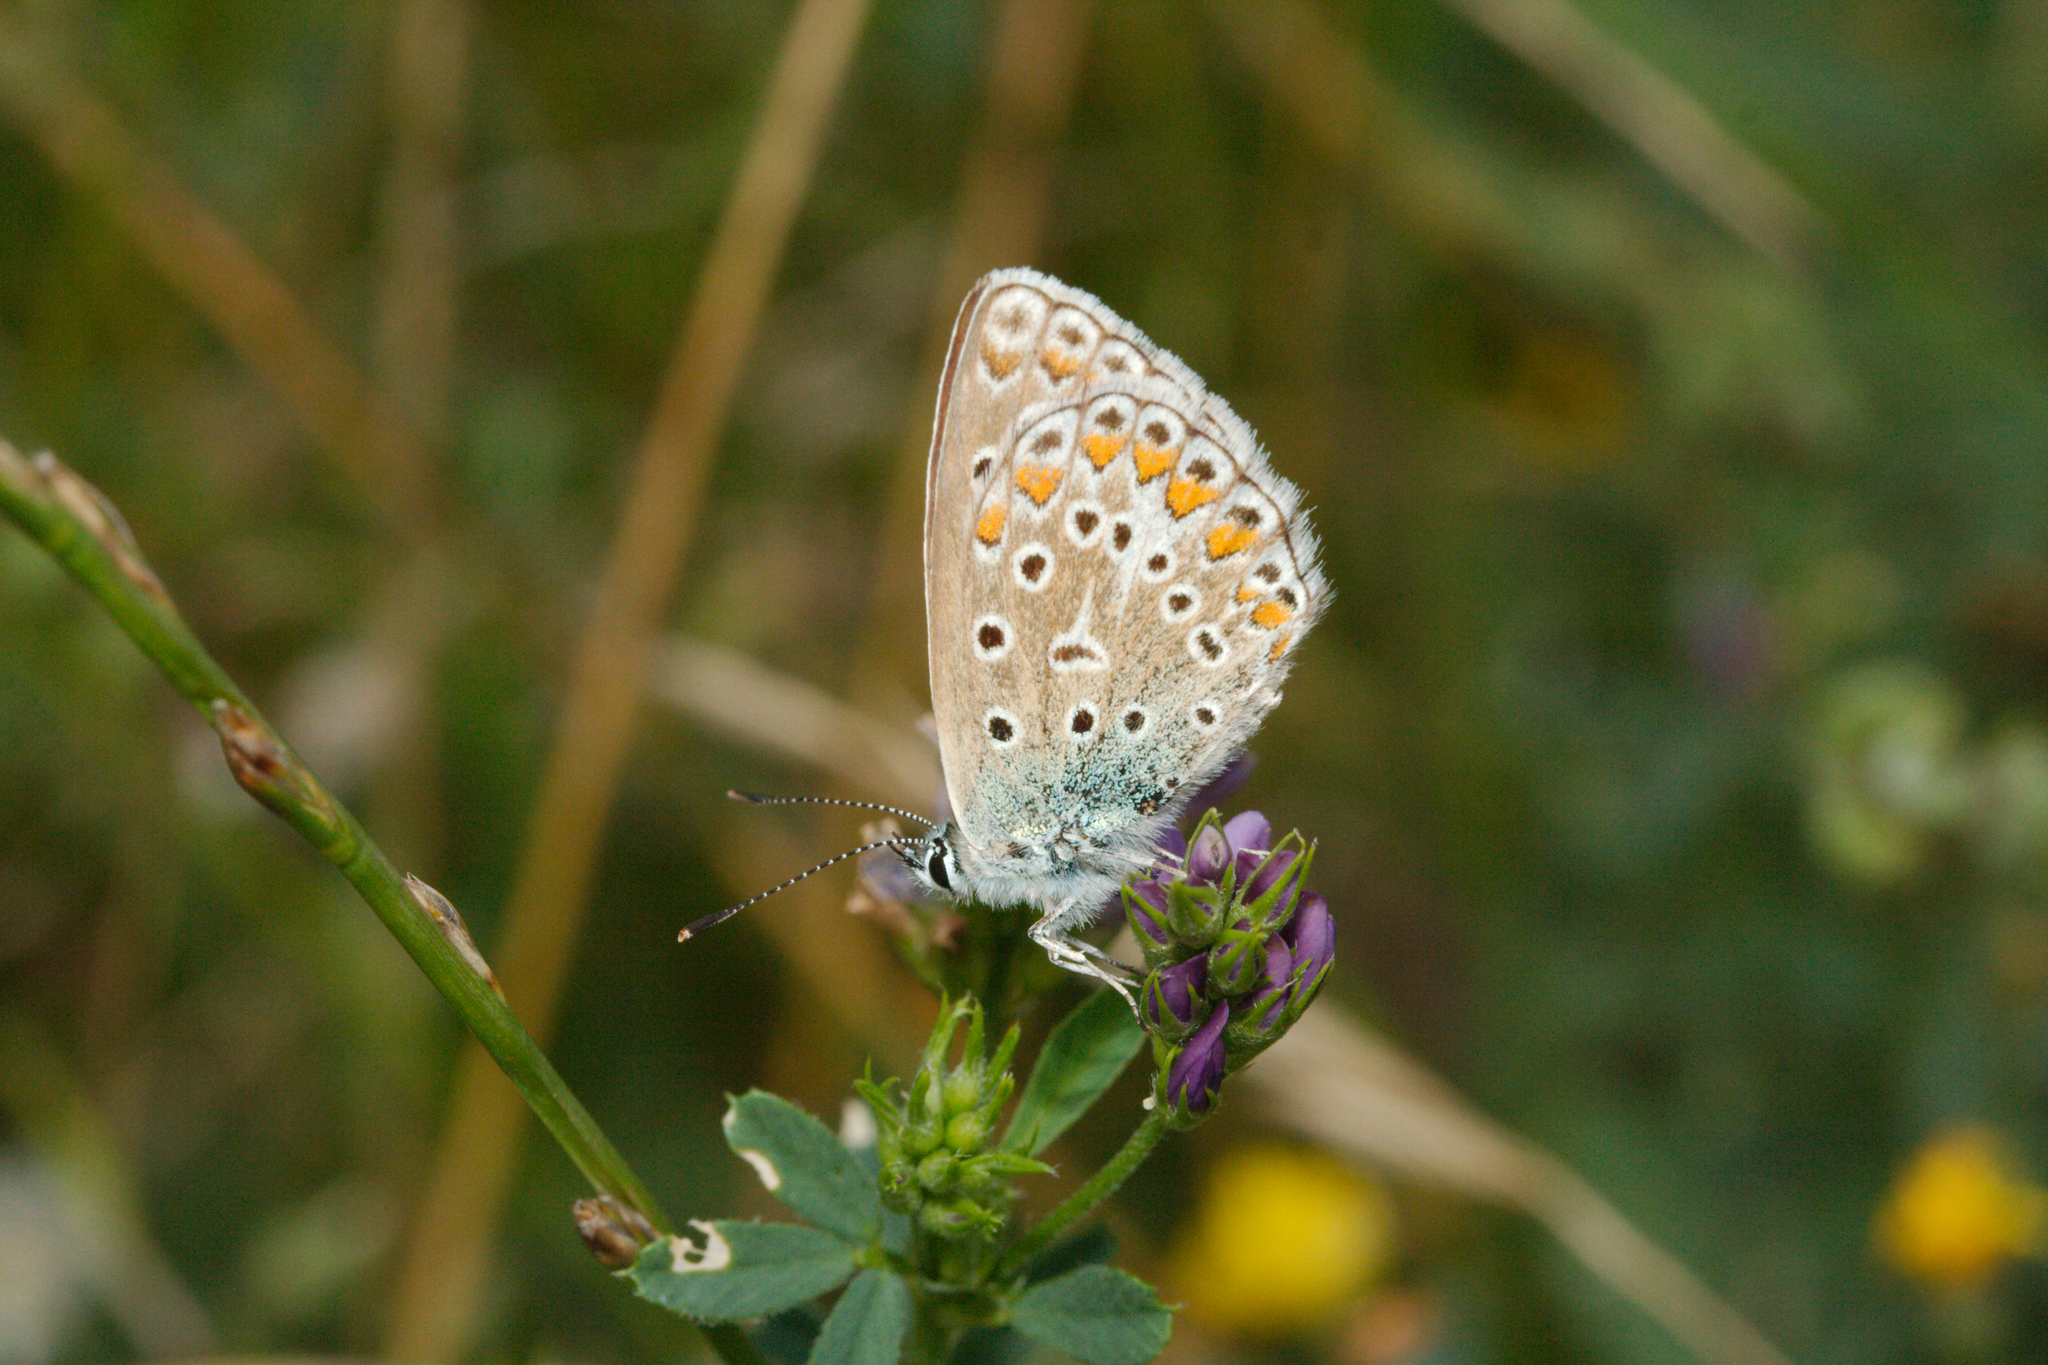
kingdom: Animalia
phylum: Arthropoda
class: Insecta
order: Lepidoptera
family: Lycaenidae
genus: Polyommatus
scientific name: Polyommatus icarus
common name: Common blue
